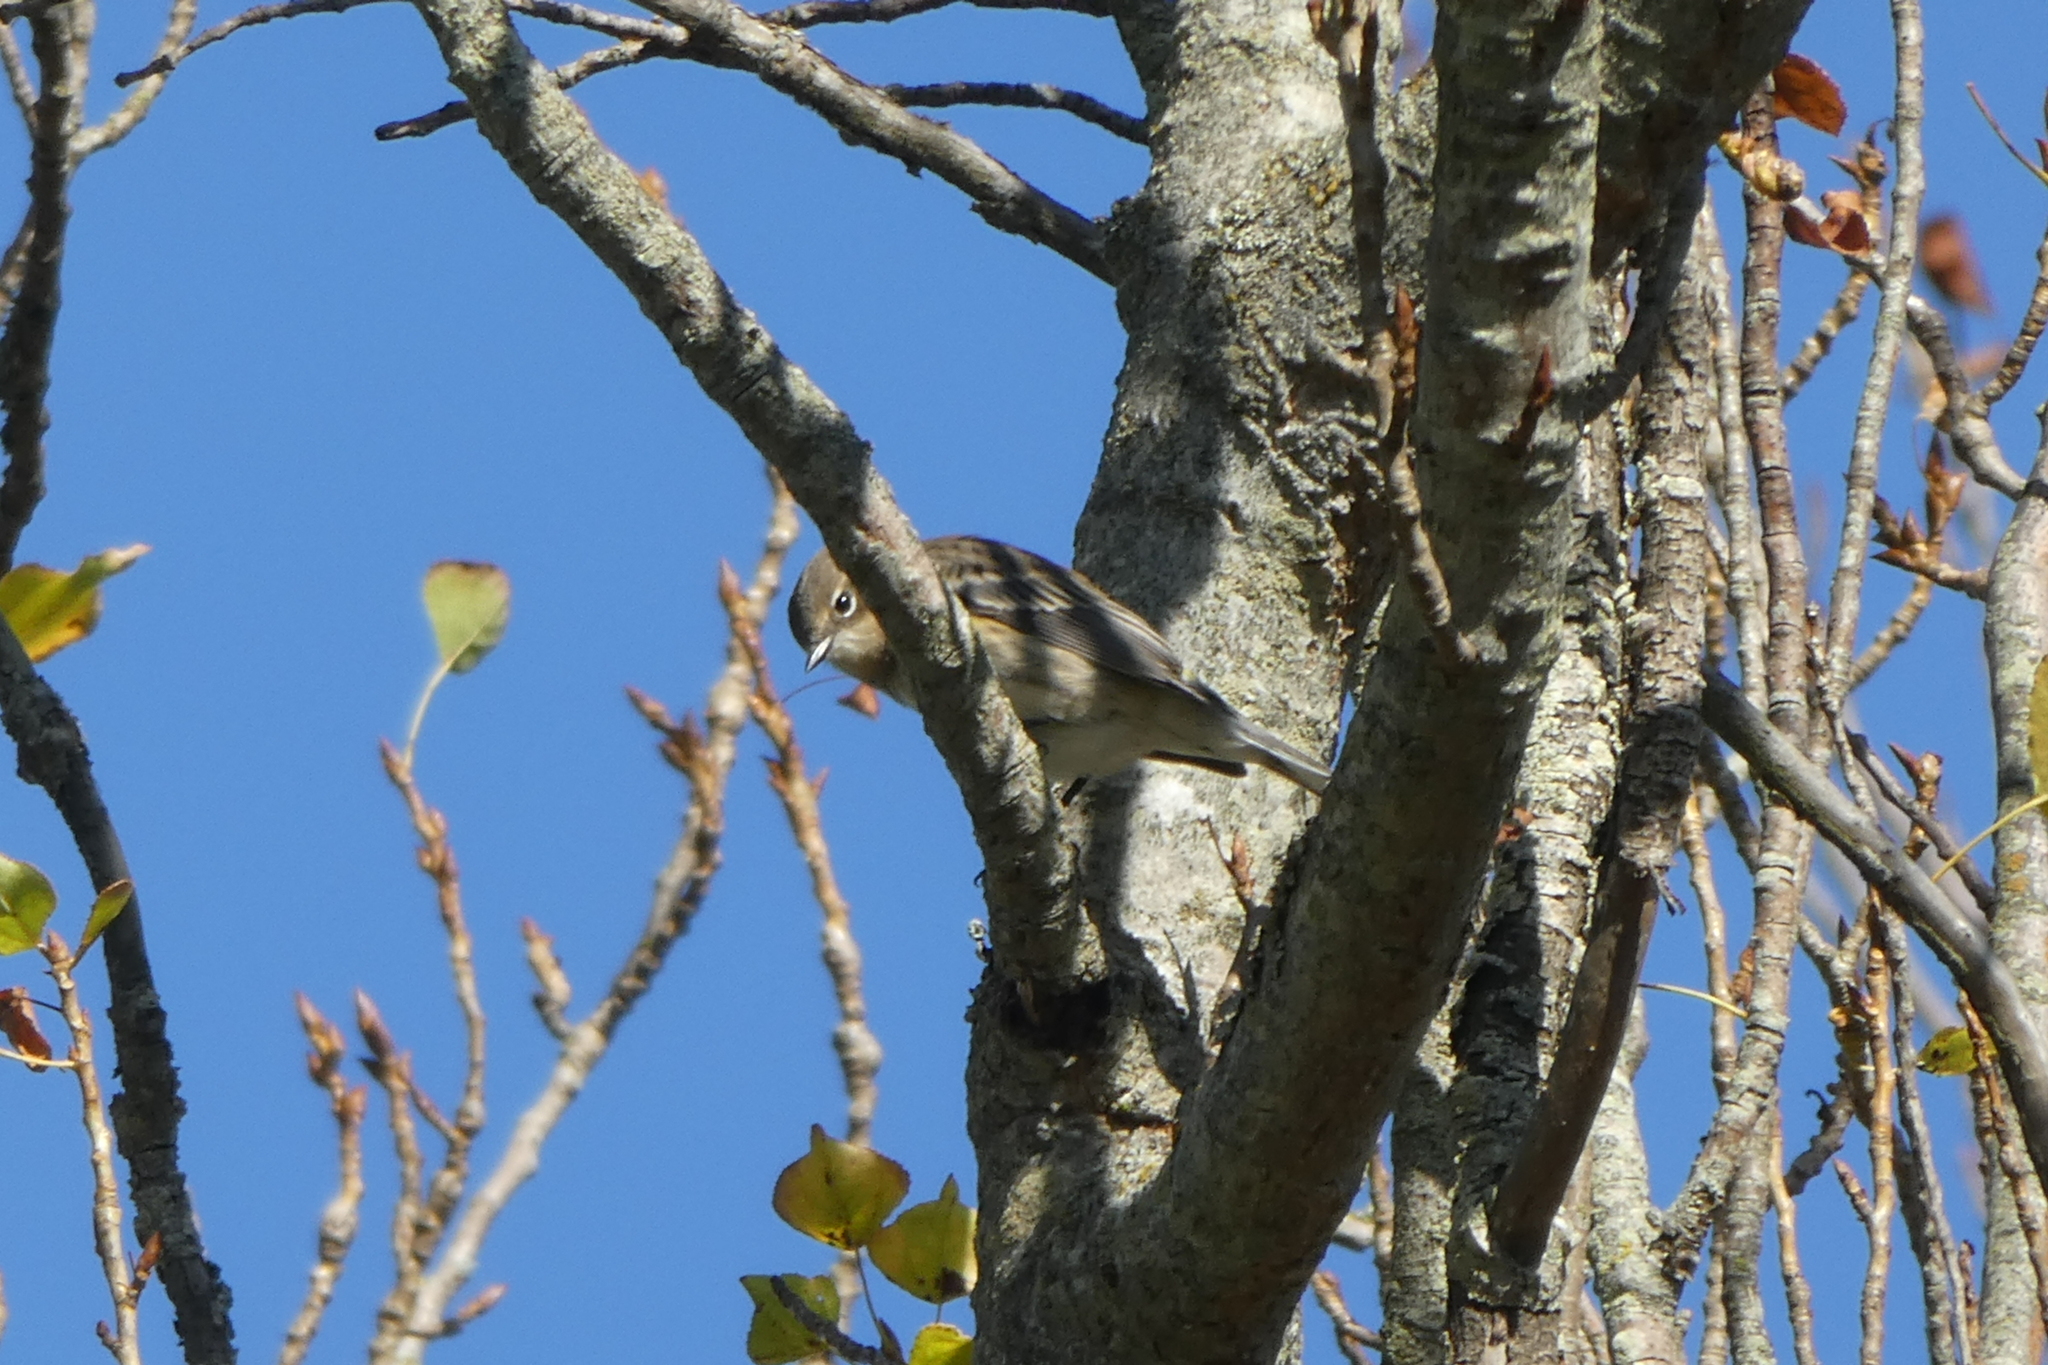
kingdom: Animalia
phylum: Chordata
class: Aves
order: Passeriformes
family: Parulidae
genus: Setophaga
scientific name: Setophaga coronata
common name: Myrtle warbler
